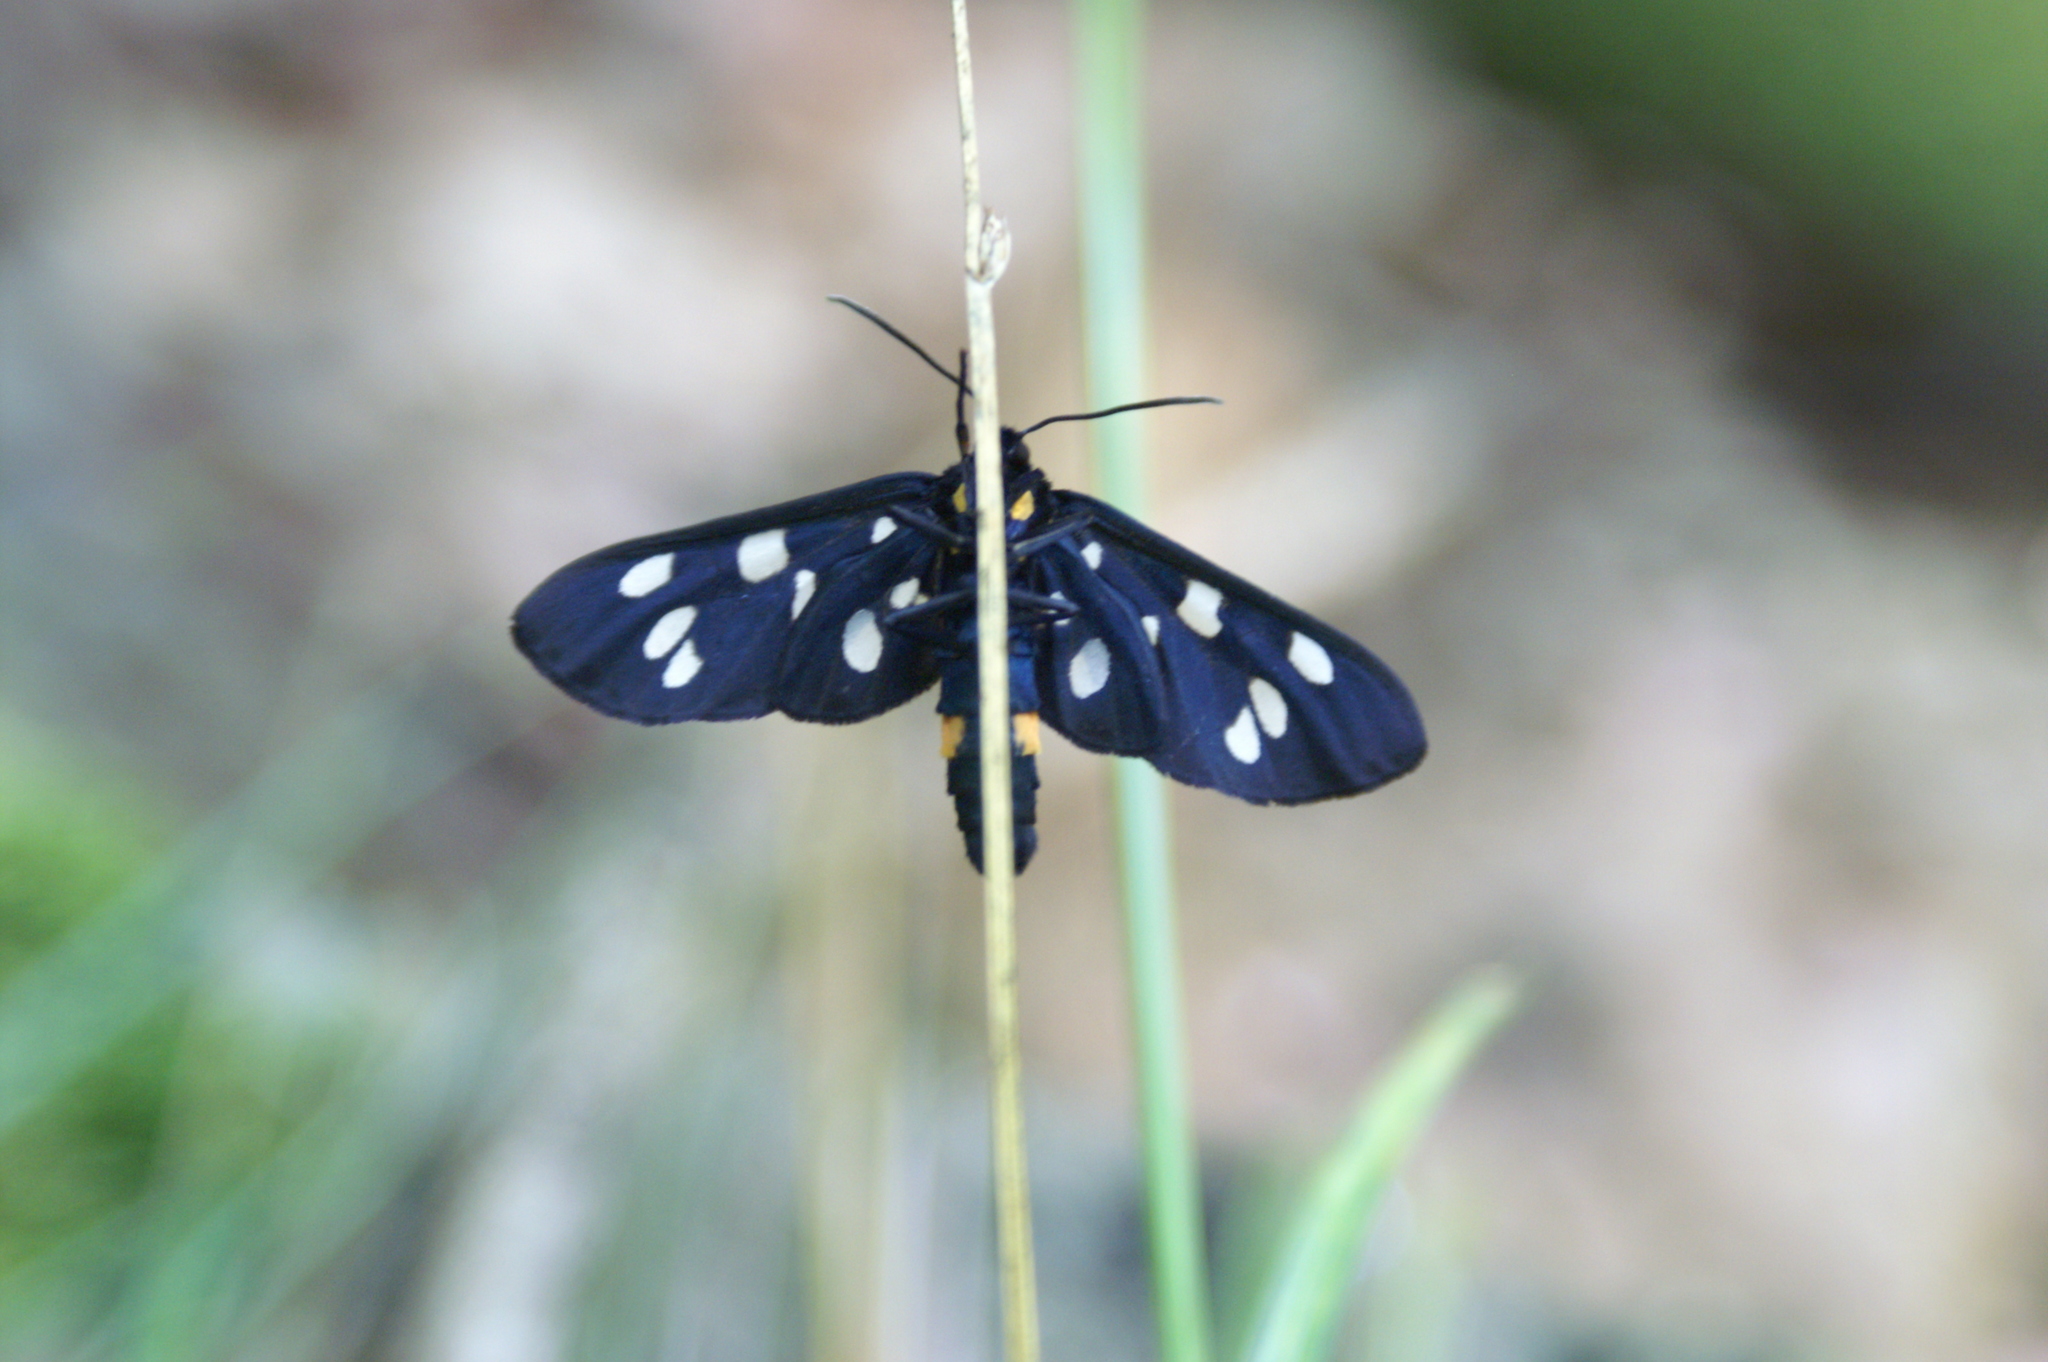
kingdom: Animalia
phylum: Arthropoda
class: Insecta
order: Lepidoptera
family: Erebidae
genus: Amata
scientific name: Amata phegea
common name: Nine-spotted
